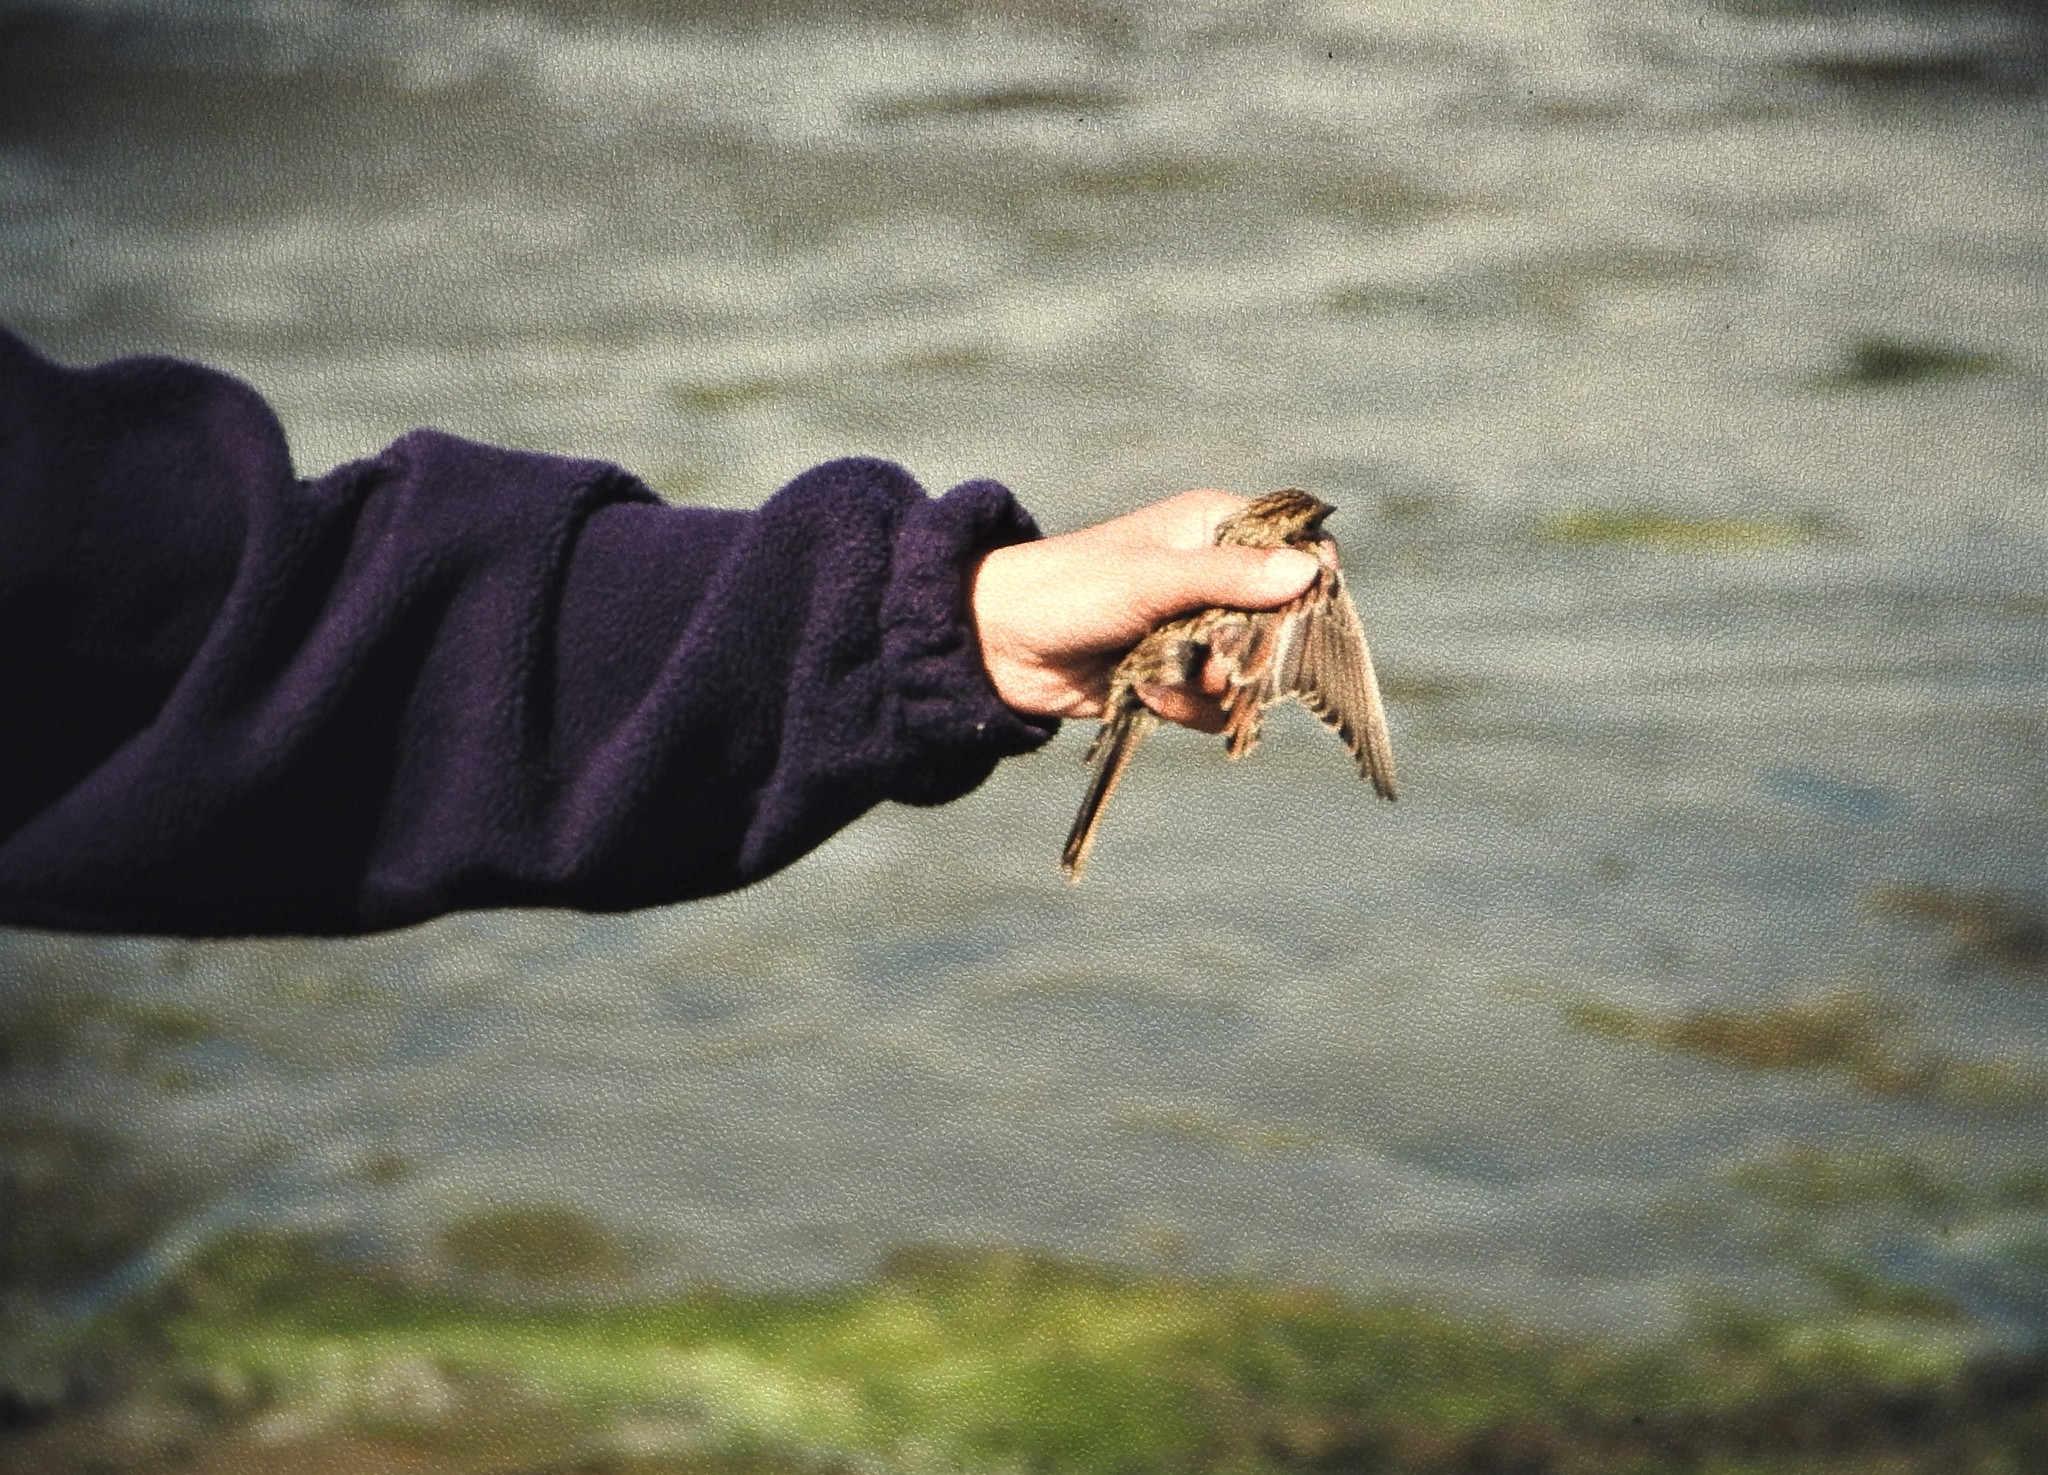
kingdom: Animalia
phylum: Chordata
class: Aves
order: Passeriformes
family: Calcariidae
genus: Calcarius
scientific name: Calcarius lapponicus
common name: Lapland longspur
